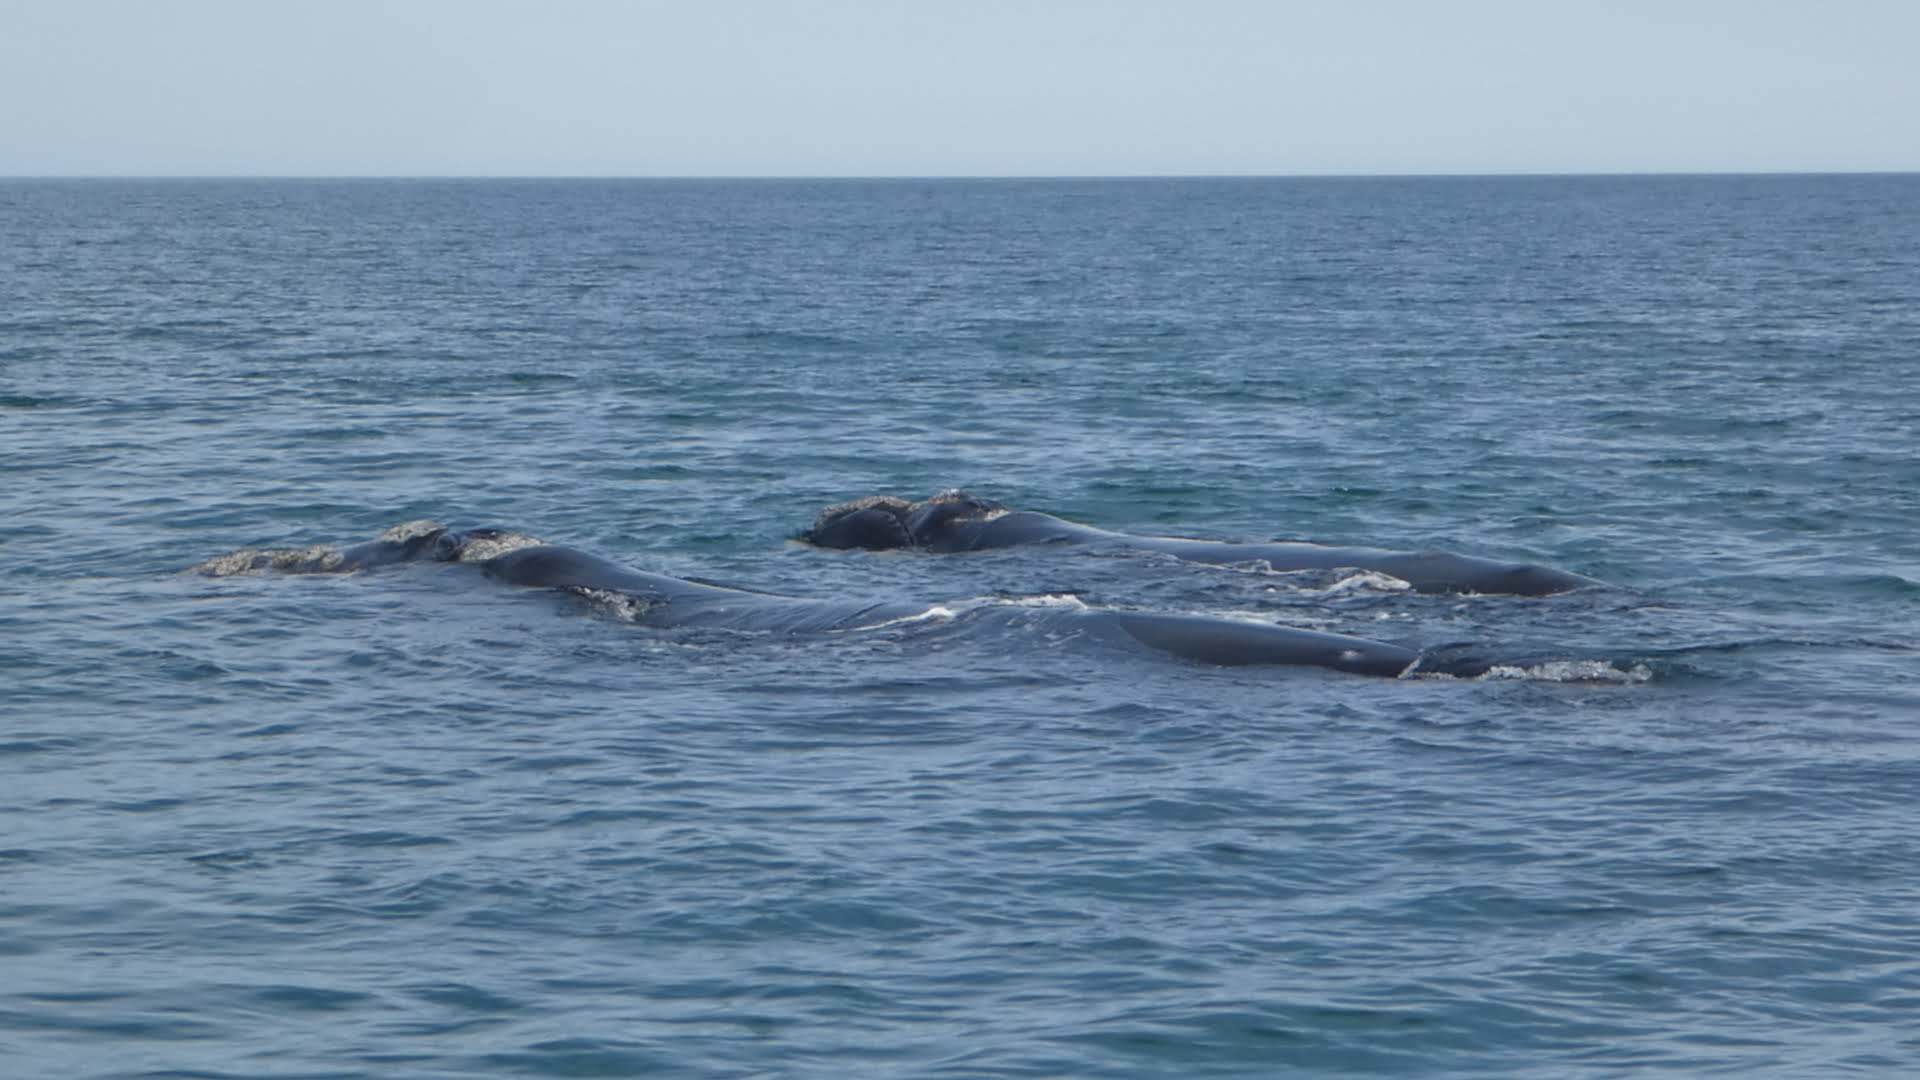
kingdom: Animalia
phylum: Chordata
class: Mammalia
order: Cetacea
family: Balaenidae
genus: Eubalaena
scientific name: Eubalaena australis
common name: Southern right whale
